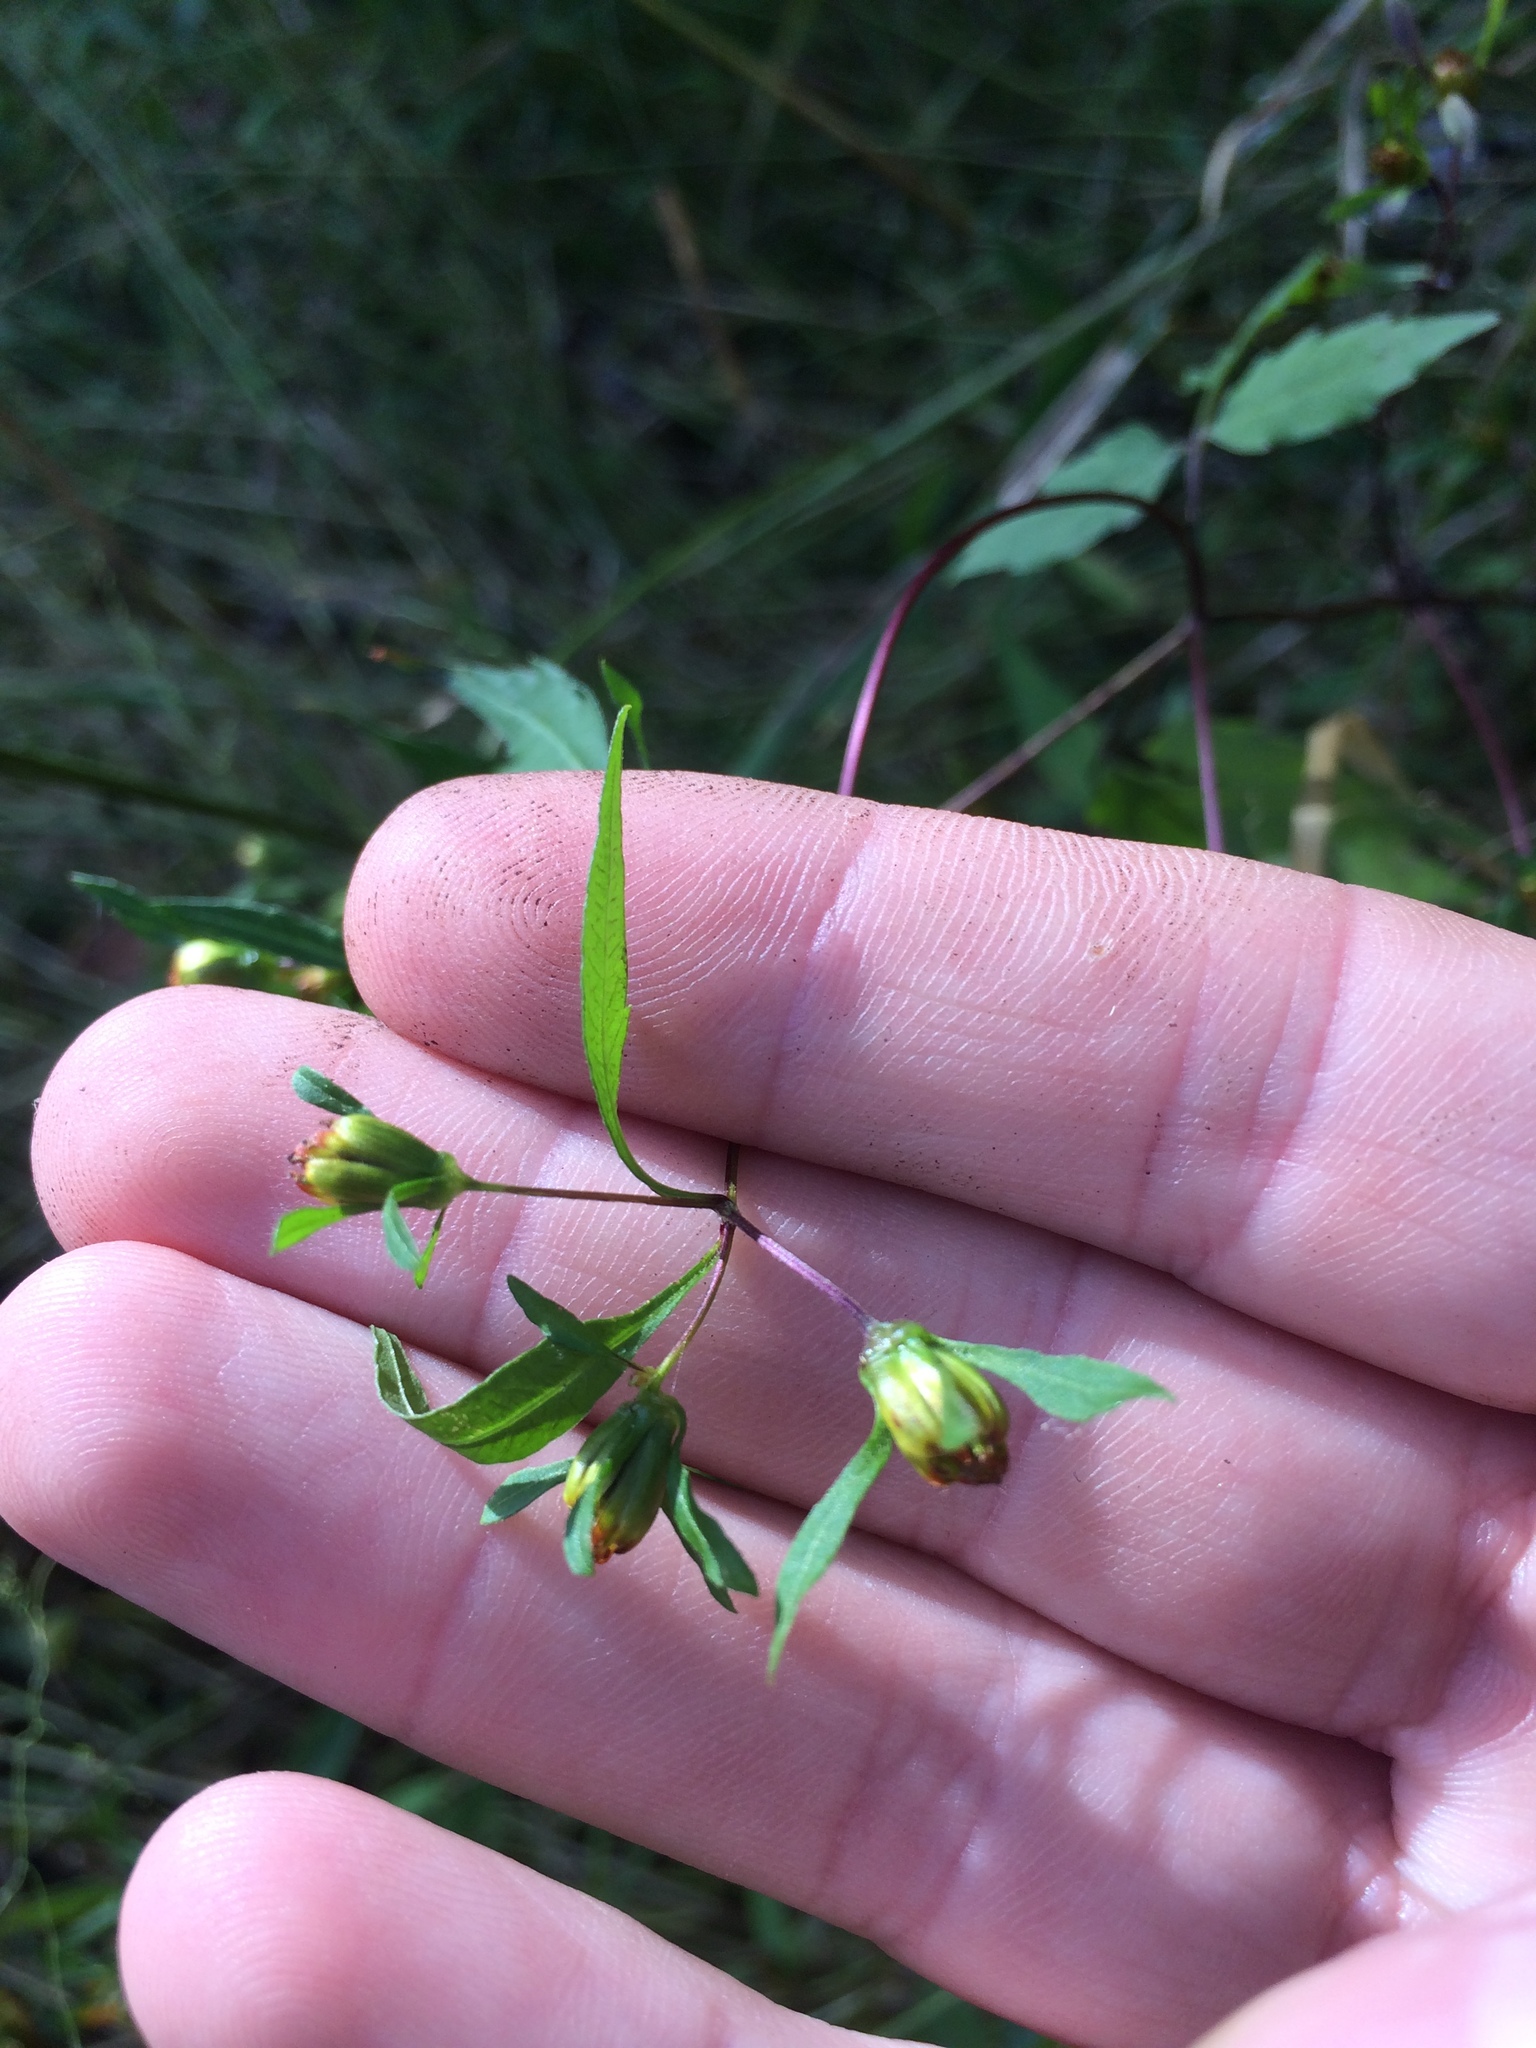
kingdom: Plantae
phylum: Tracheophyta
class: Magnoliopsida
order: Asterales
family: Asteraceae
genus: Bidens
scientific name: Bidens discoidea
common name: Discoide beggarticks
